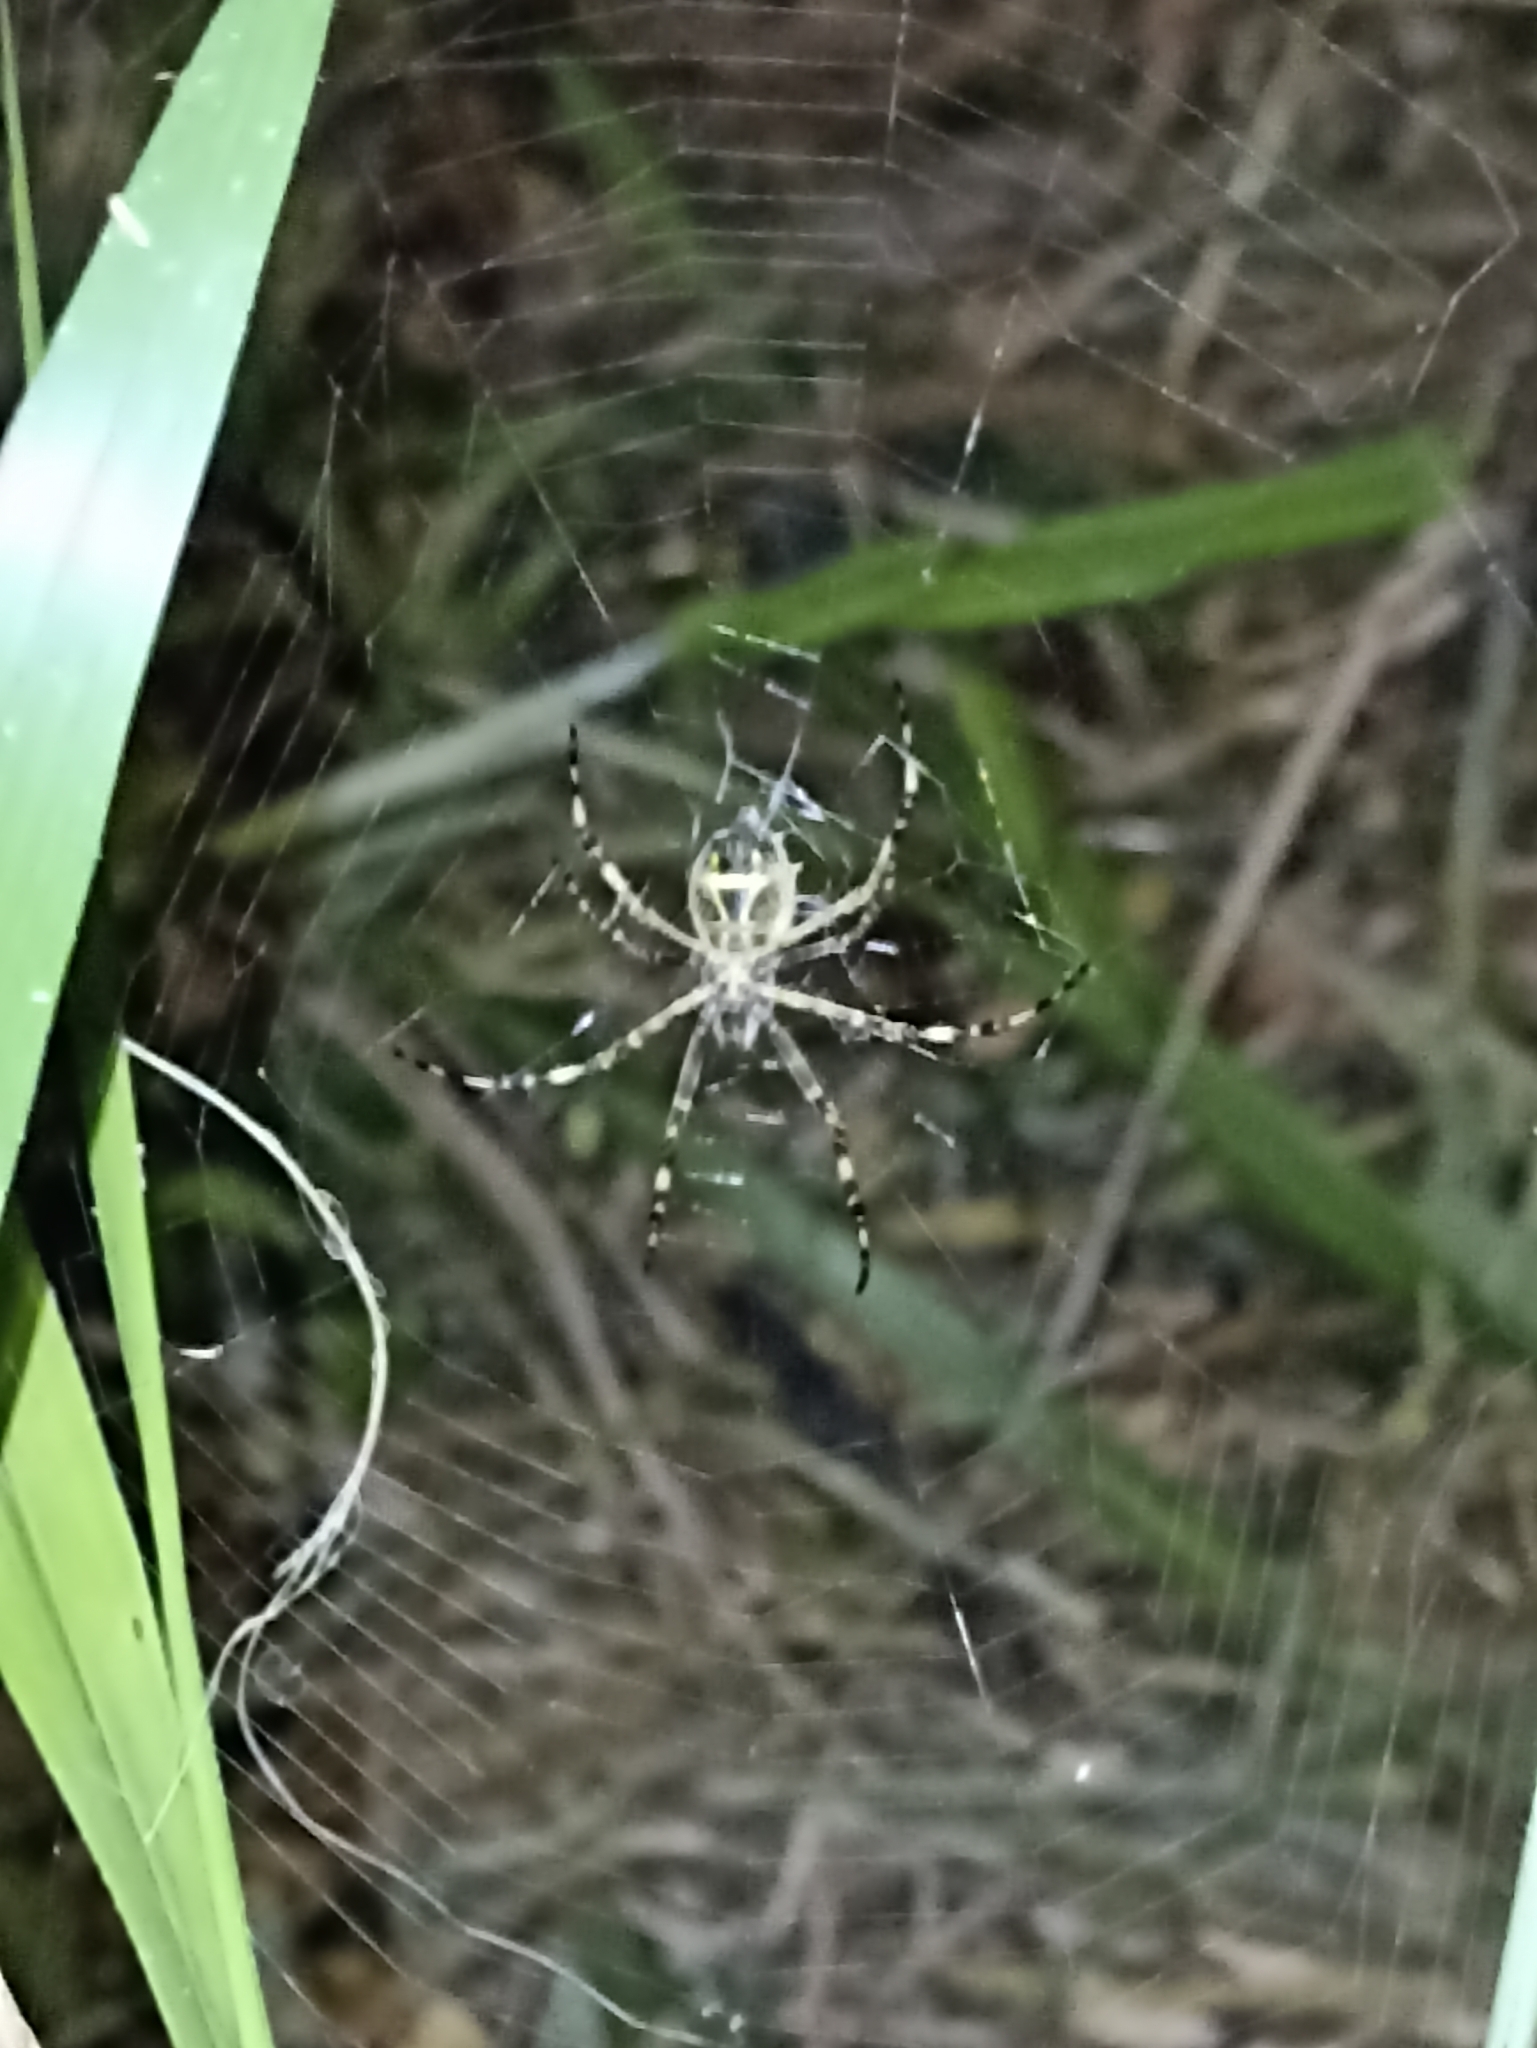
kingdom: Animalia
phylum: Arthropoda
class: Arachnida
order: Araneae
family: Araneidae
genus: Argiope
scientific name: Argiope argentata
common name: Orb weavers
